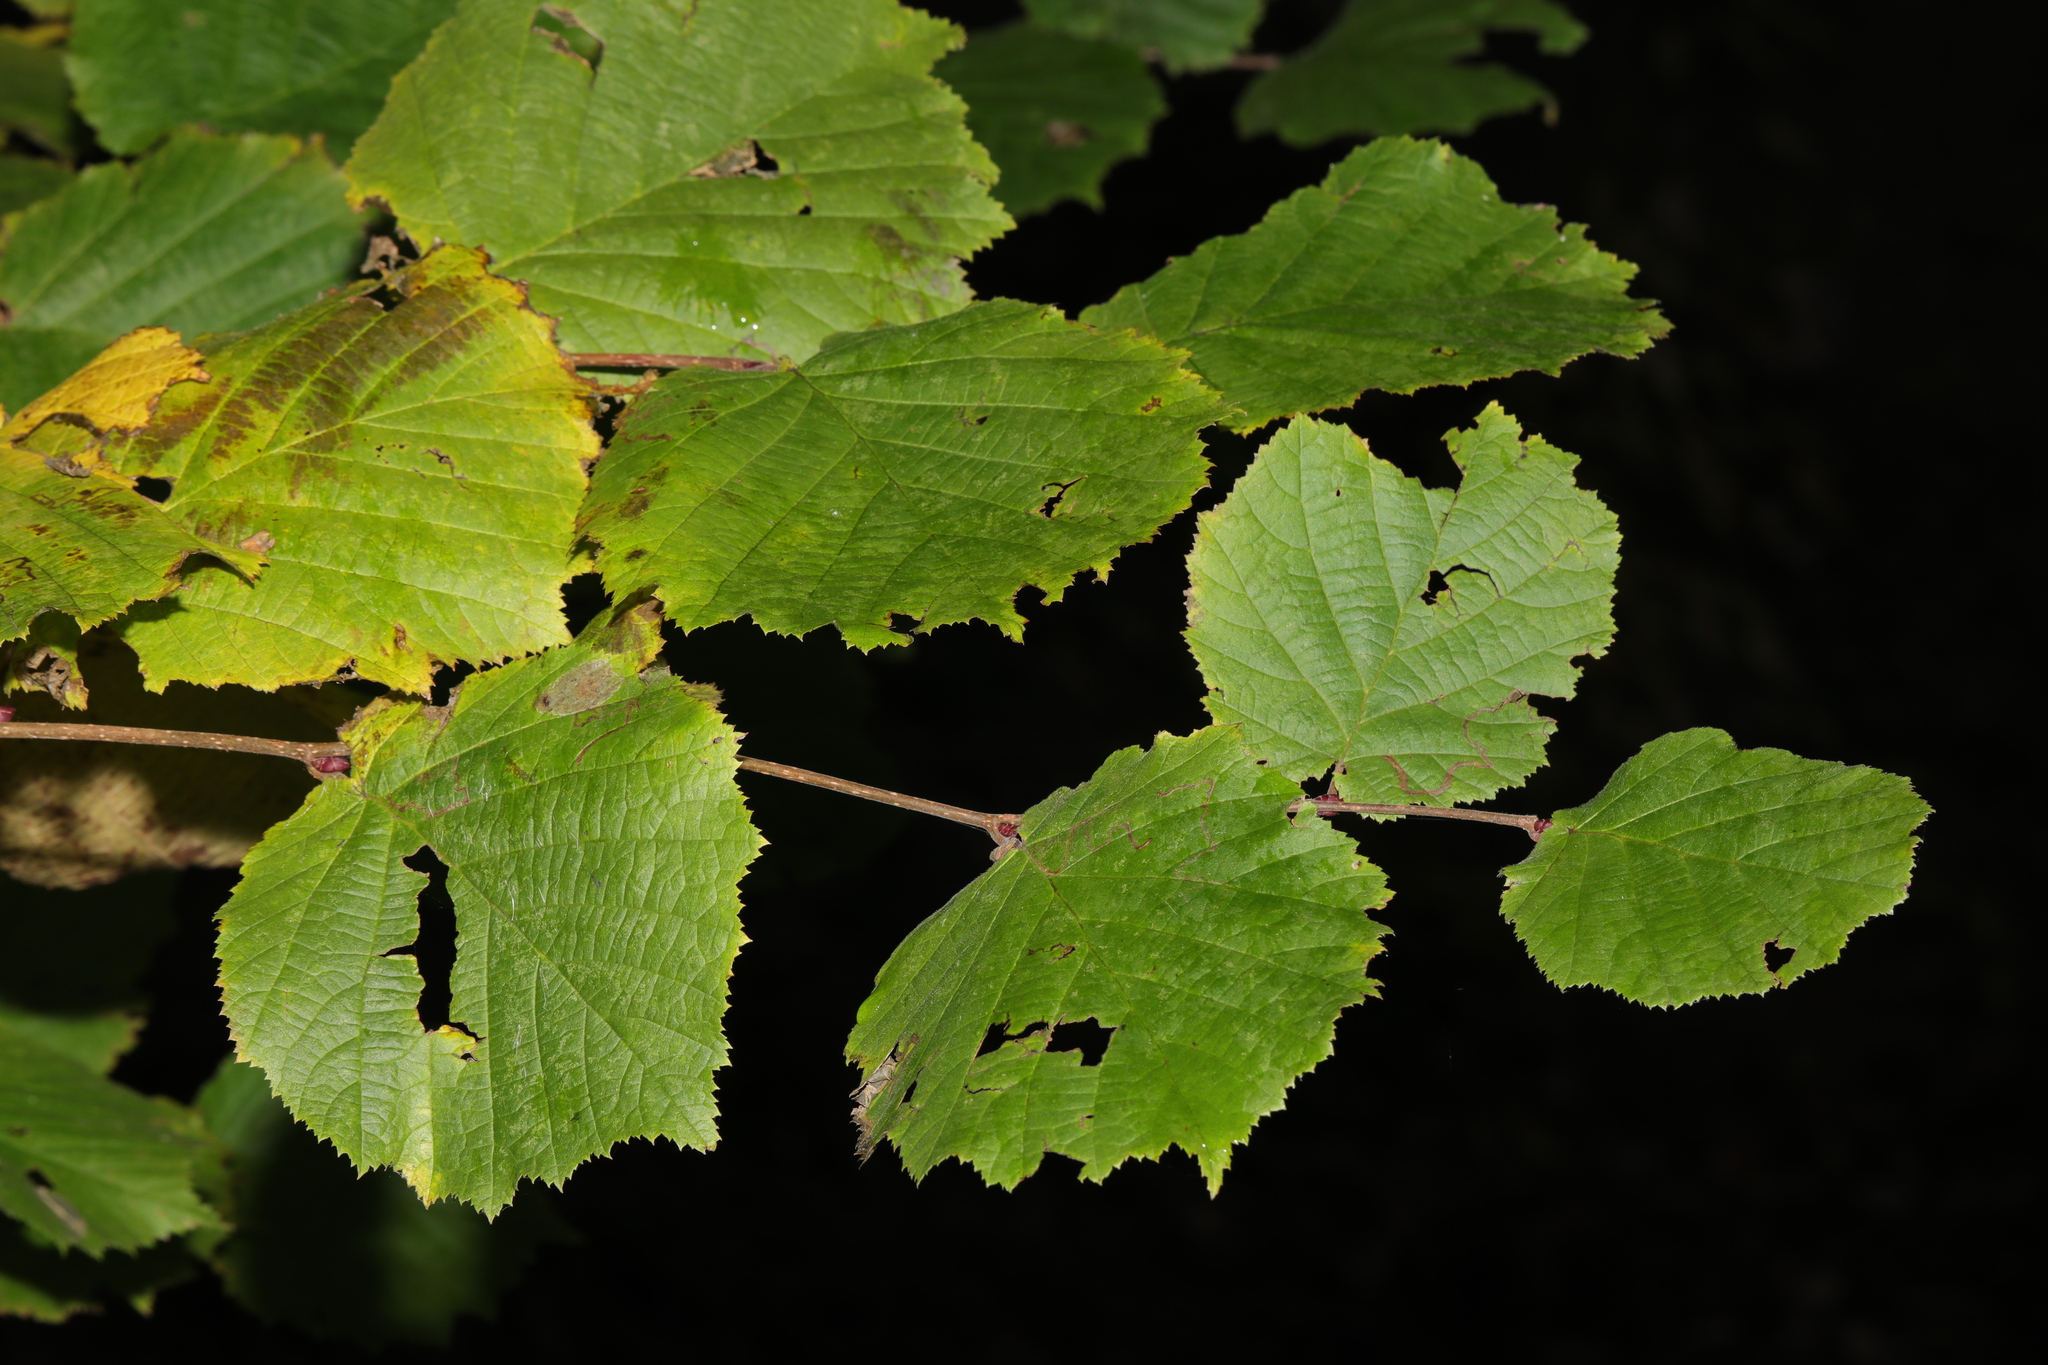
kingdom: Plantae
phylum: Tracheophyta
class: Magnoliopsida
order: Fagales
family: Betulaceae
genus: Corylus
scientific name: Corylus avellana
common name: European hazel
